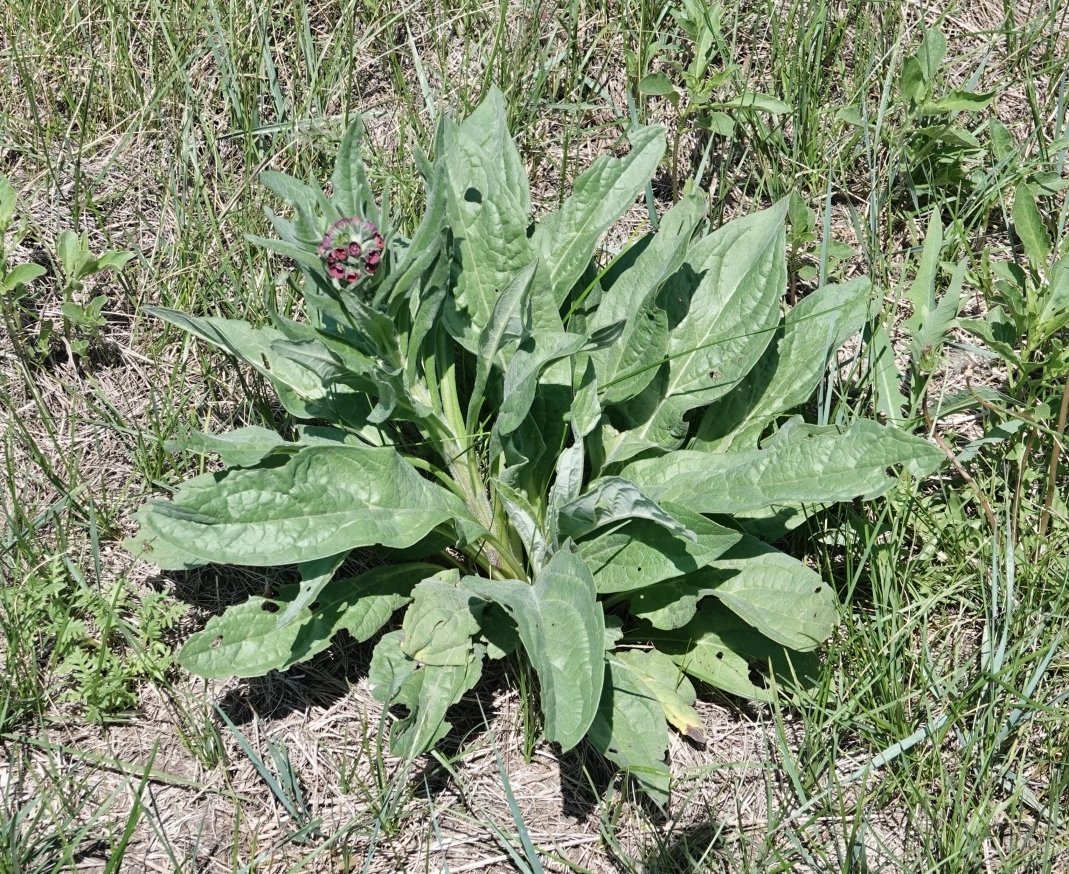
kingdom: Plantae
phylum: Tracheophyta
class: Magnoliopsida
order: Boraginales
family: Boraginaceae
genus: Cynoglossum
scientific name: Cynoglossum officinale
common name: Hound's-tongue
